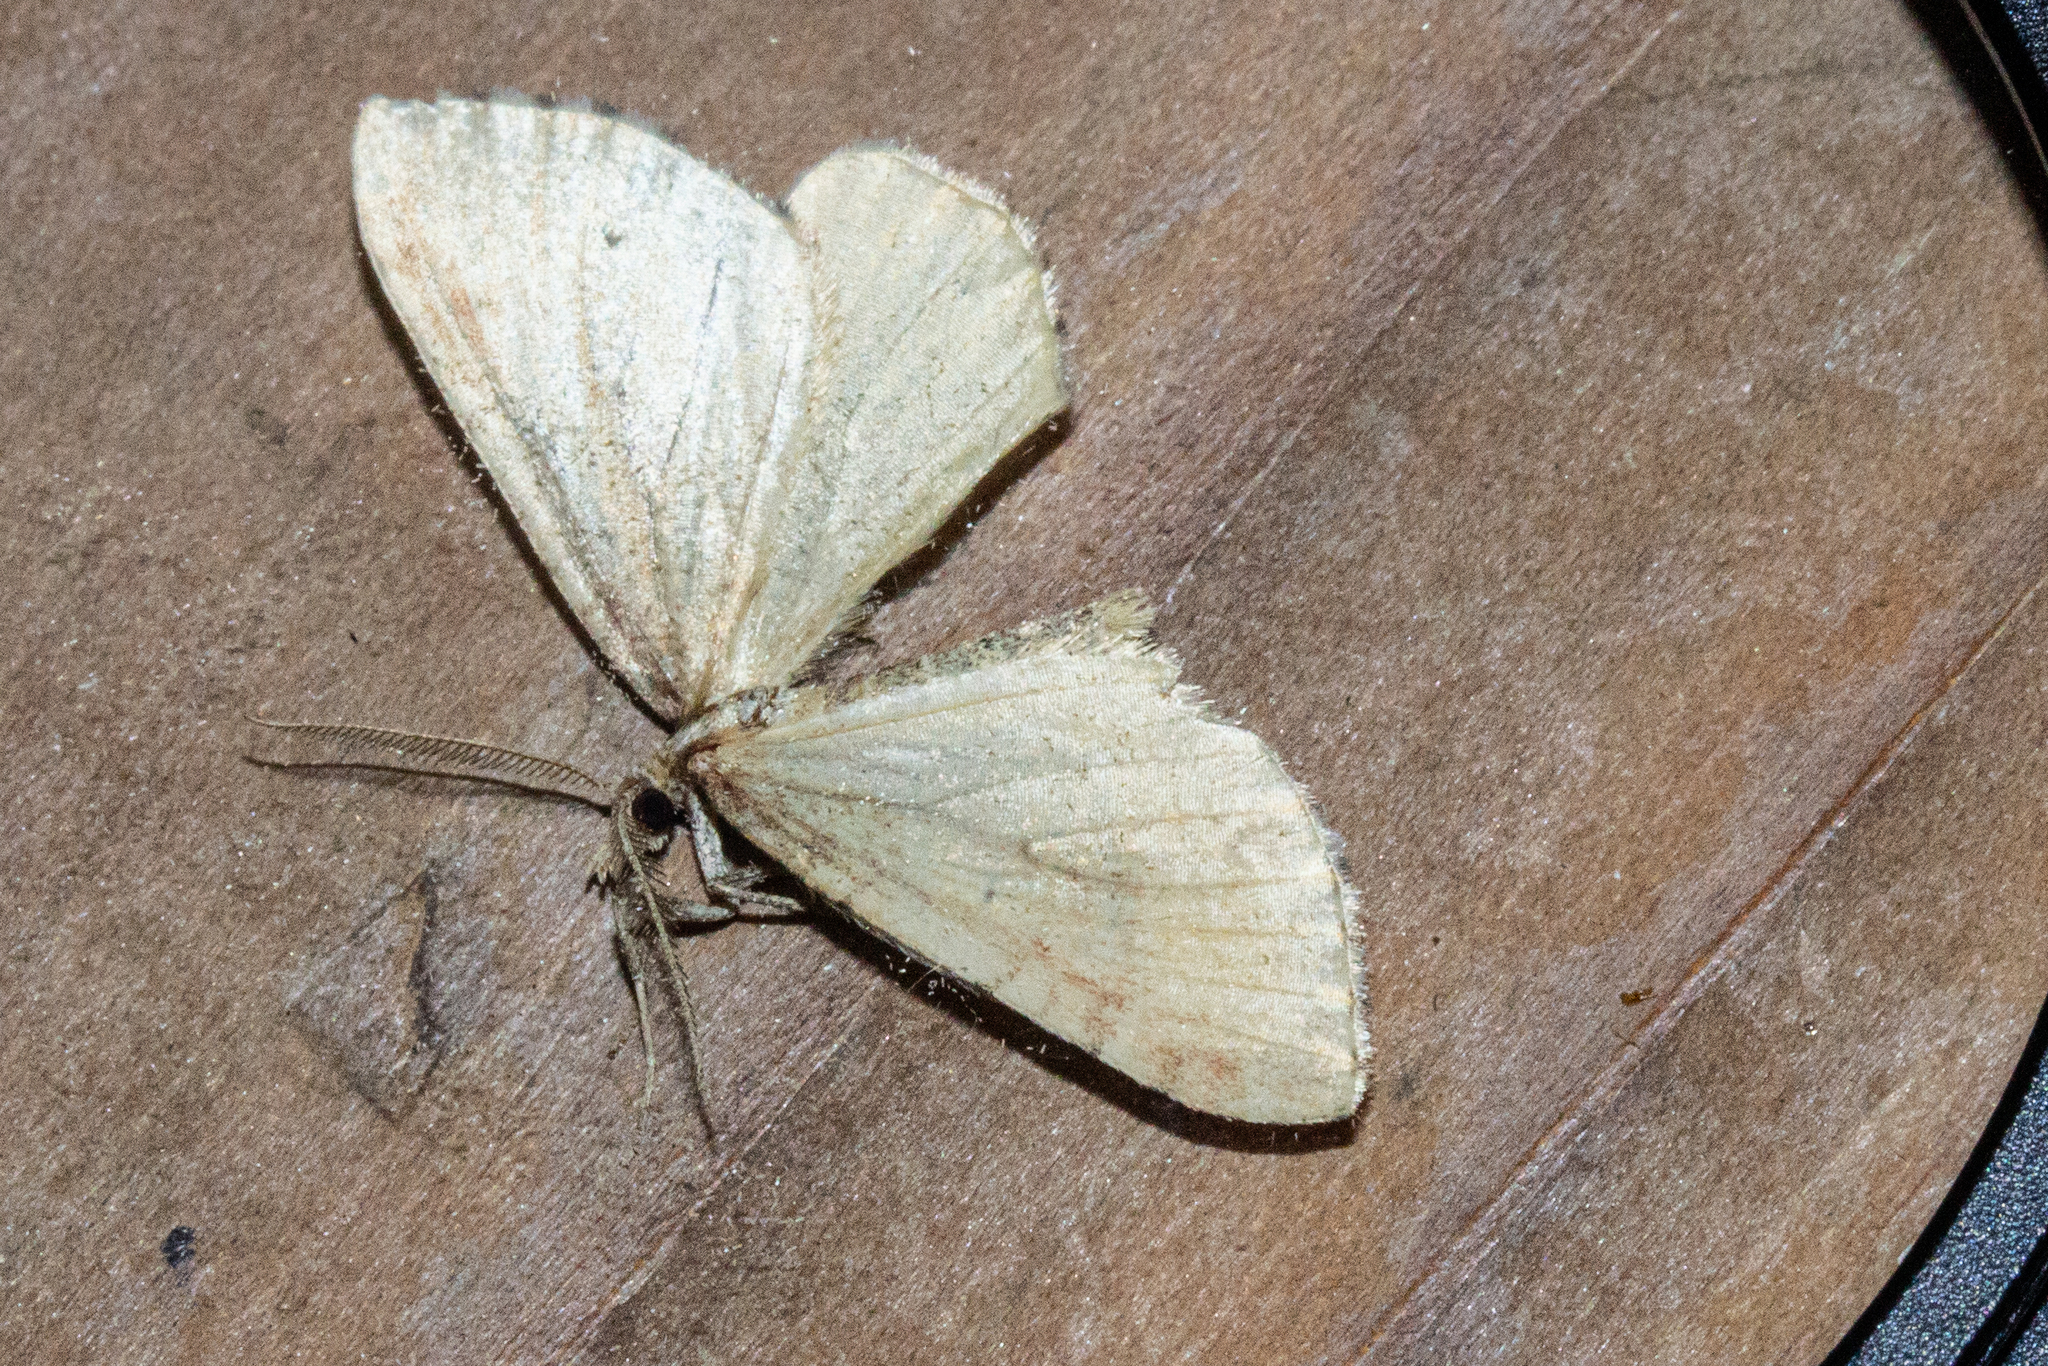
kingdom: Animalia
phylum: Arthropoda
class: Insecta
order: Lepidoptera
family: Geometridae
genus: Asaphodes
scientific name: Asaphodes aegrota
